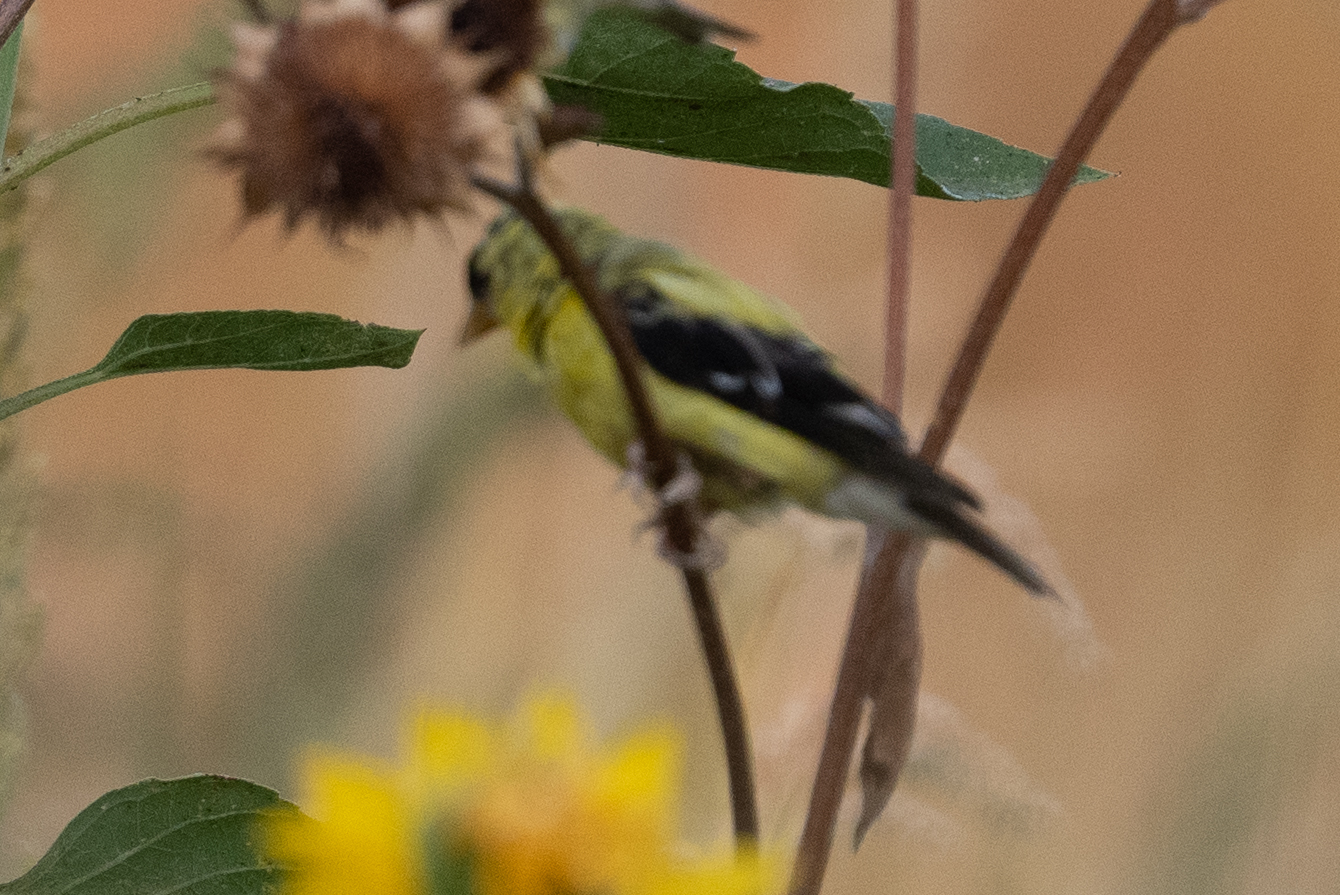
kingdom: Animalia
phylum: Chordata
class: Aves
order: Passeriformes
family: Fringillidae
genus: Spinus
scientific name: Spinus tristis
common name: American goldfinch
